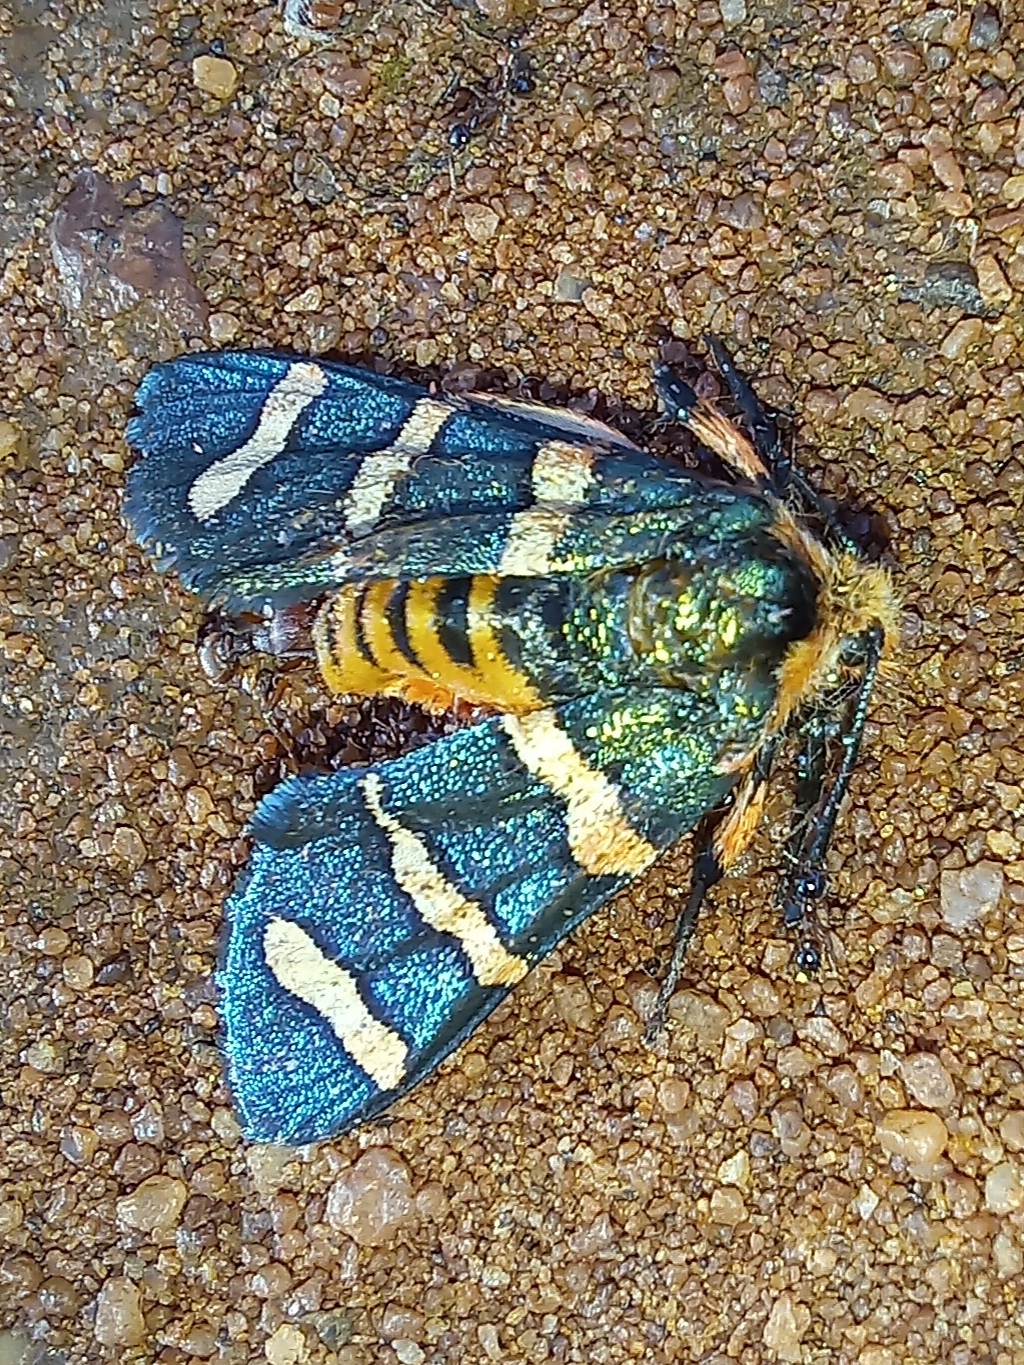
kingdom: Animalia
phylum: Arthropoda
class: Insecta
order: Lepidoptera
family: Thyrididae
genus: Arniocera
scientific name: Arniocera erythropyga
